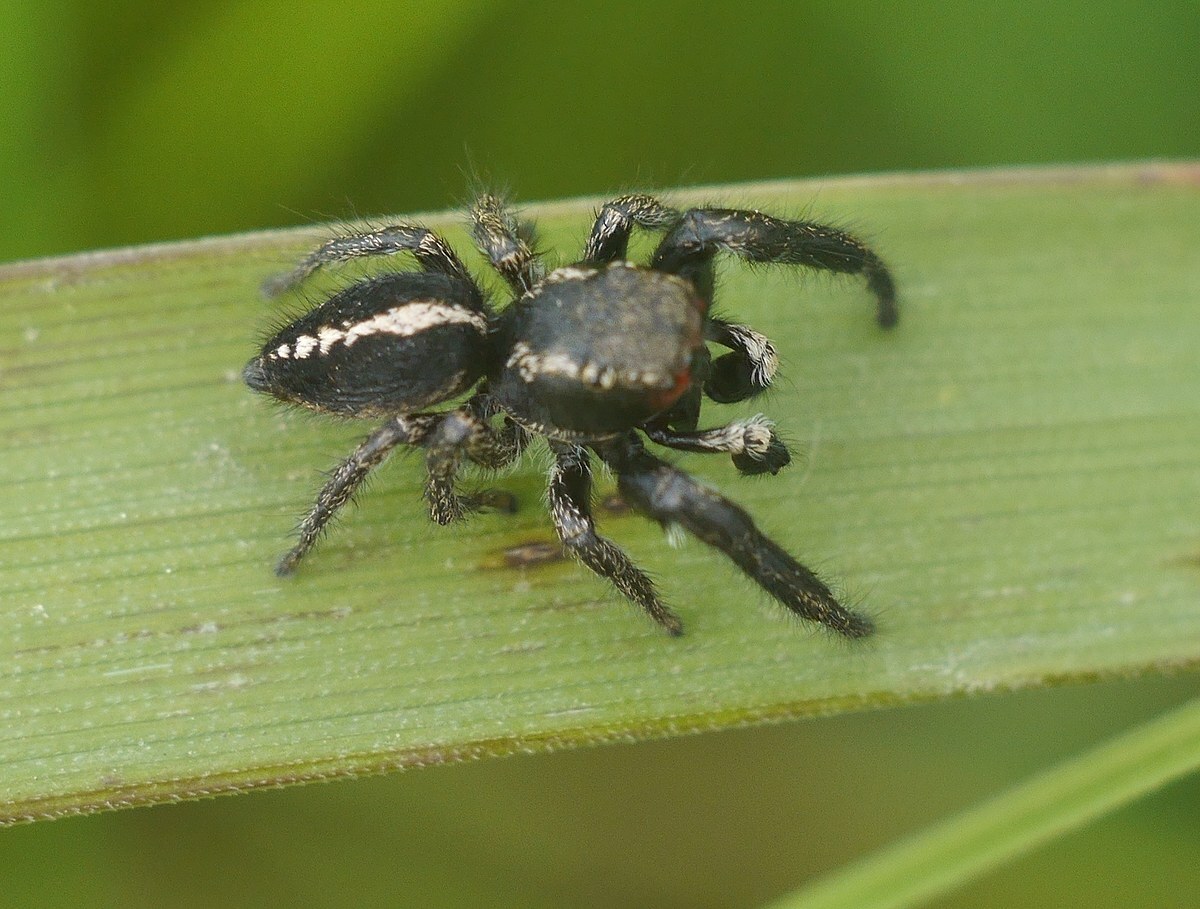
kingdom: Animalia
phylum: Arthropoda
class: Arachnida
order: Araneae
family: Salticidae
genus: Pellenes
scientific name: Pellenes seriatus
